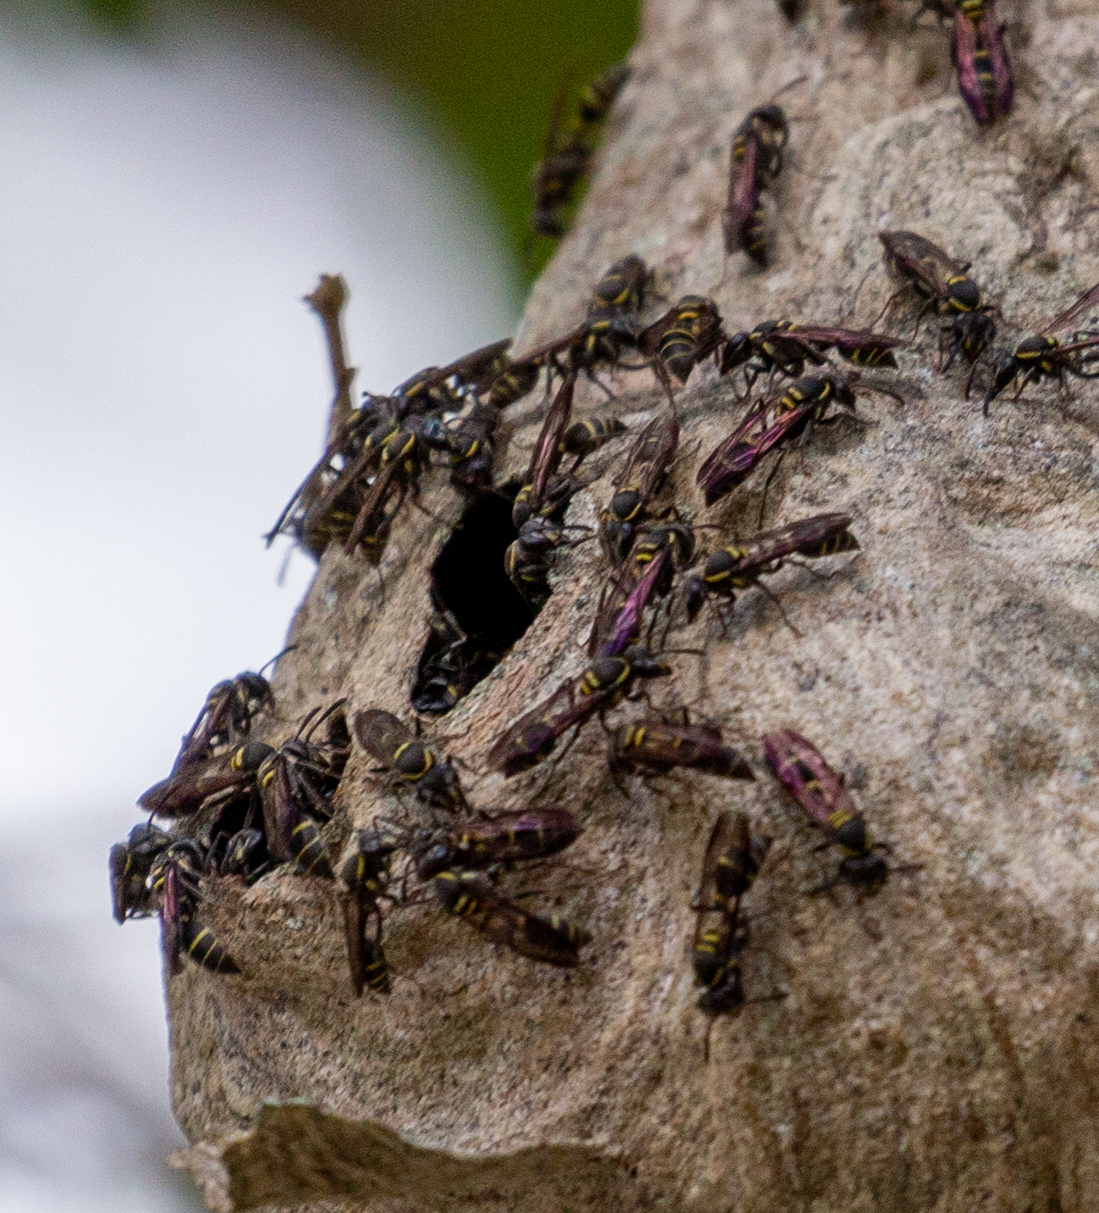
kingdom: Animalia
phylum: Arthropoda
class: Insecta
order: Hymenoptera
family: Eumenidae
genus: Polybia
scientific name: Polybia occidentalis
